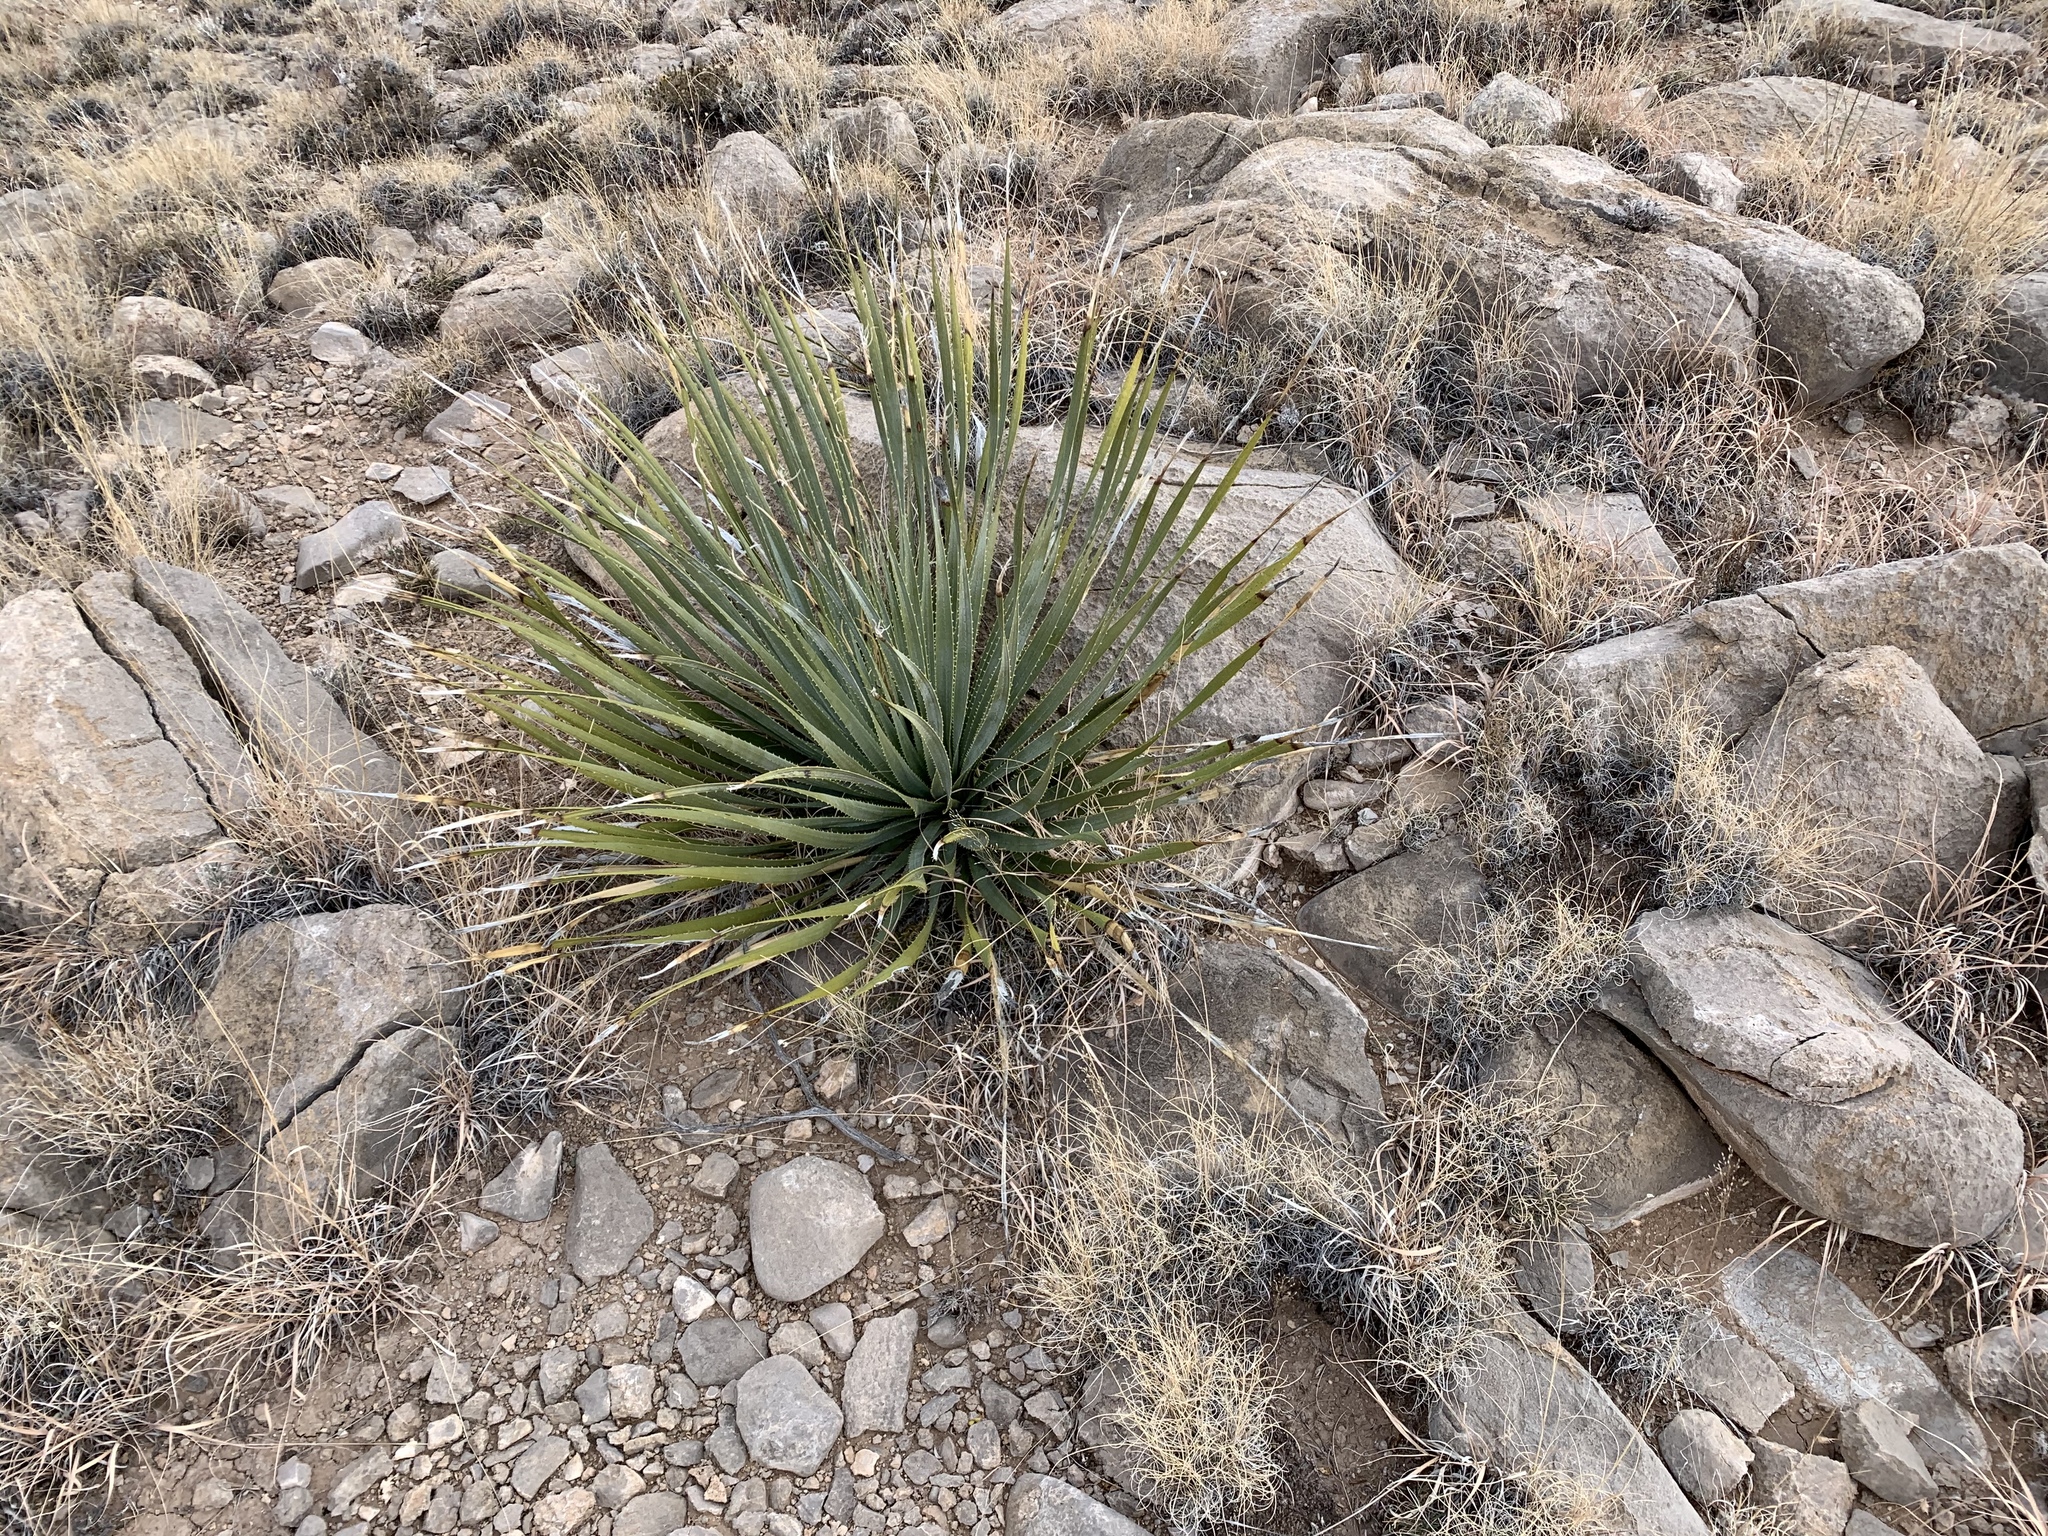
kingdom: Plantae
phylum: Tracheophyta
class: Liliopsida
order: Asparagales
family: Asparagaceae
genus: Dasylirion
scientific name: Dasylirion wheeleri
